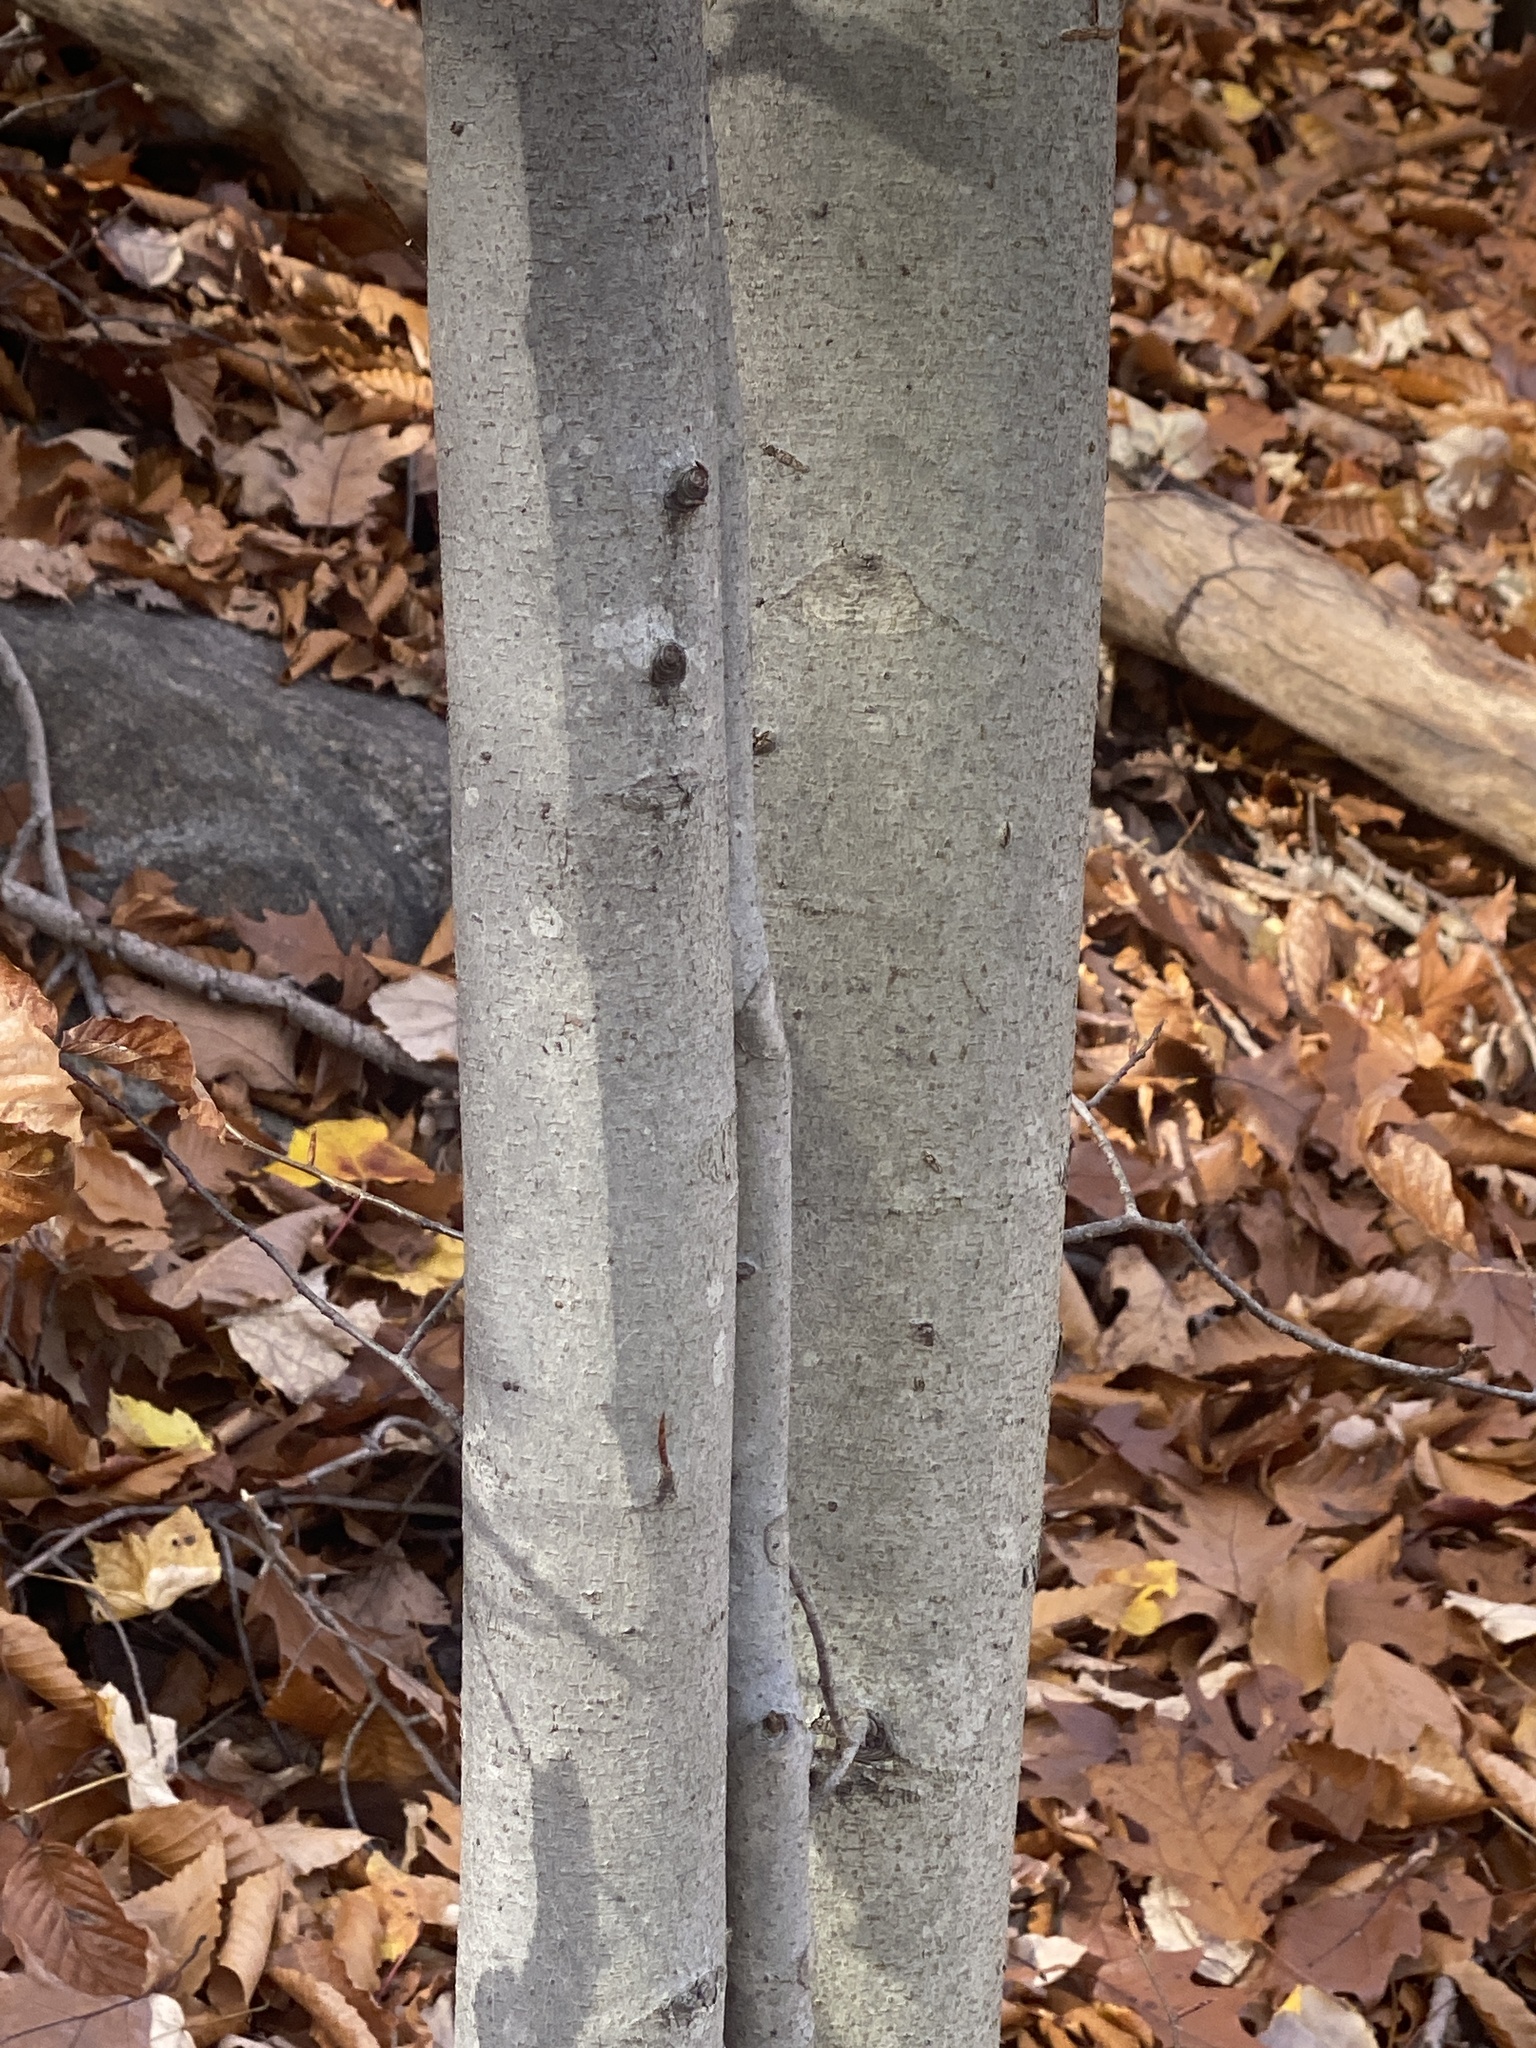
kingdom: Plantae
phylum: Tracheophyta
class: Magnoliopsida
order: Fagales
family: Fagaceae
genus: Fagus
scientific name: Fagus grandifolia
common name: American beech
